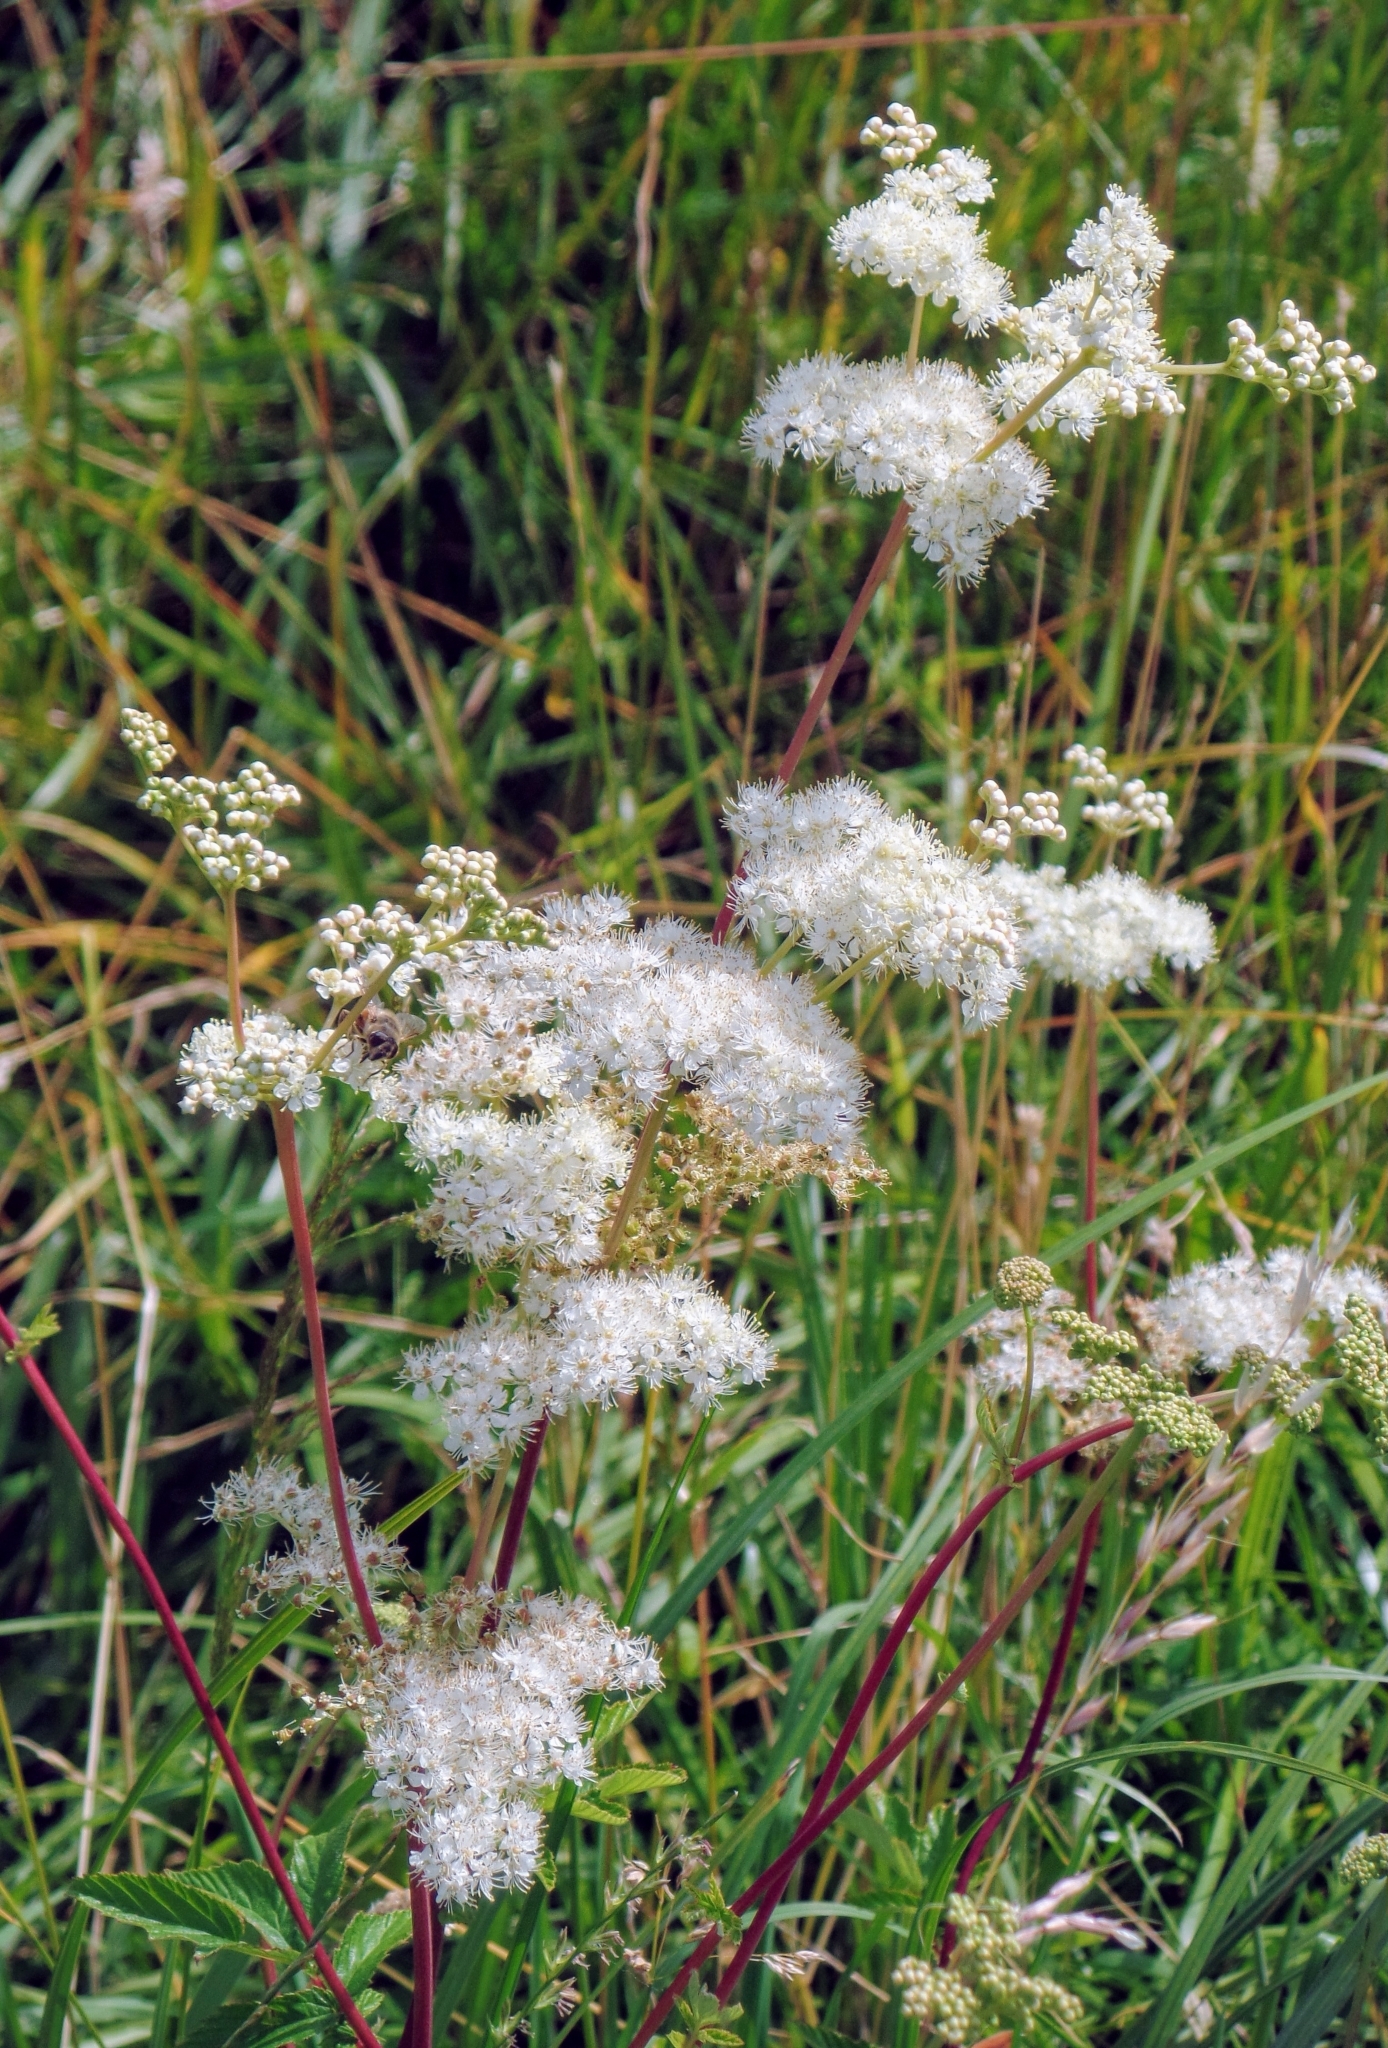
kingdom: Plantae
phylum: Tracheophyta
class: Magnoliopsida
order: Rosales
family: Rosaceae
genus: Filipendula
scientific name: Filipendula ulmaria
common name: Meadowsweet
